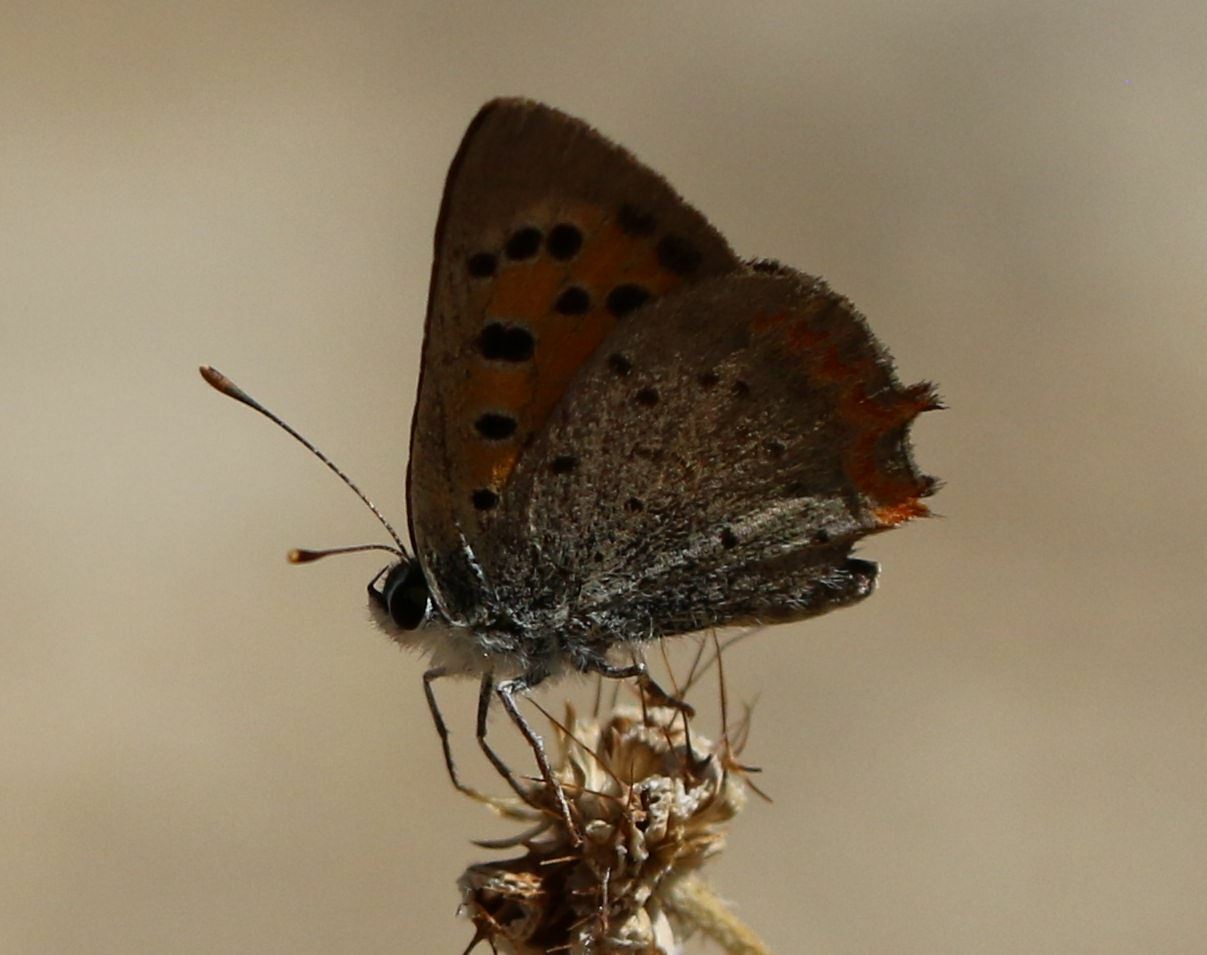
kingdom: Animalia
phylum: Arthropoda
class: Insecta
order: Lepidoptera
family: Lycaenidae
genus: Lycaena
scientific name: Lycaena phlaeas
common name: Small copper
